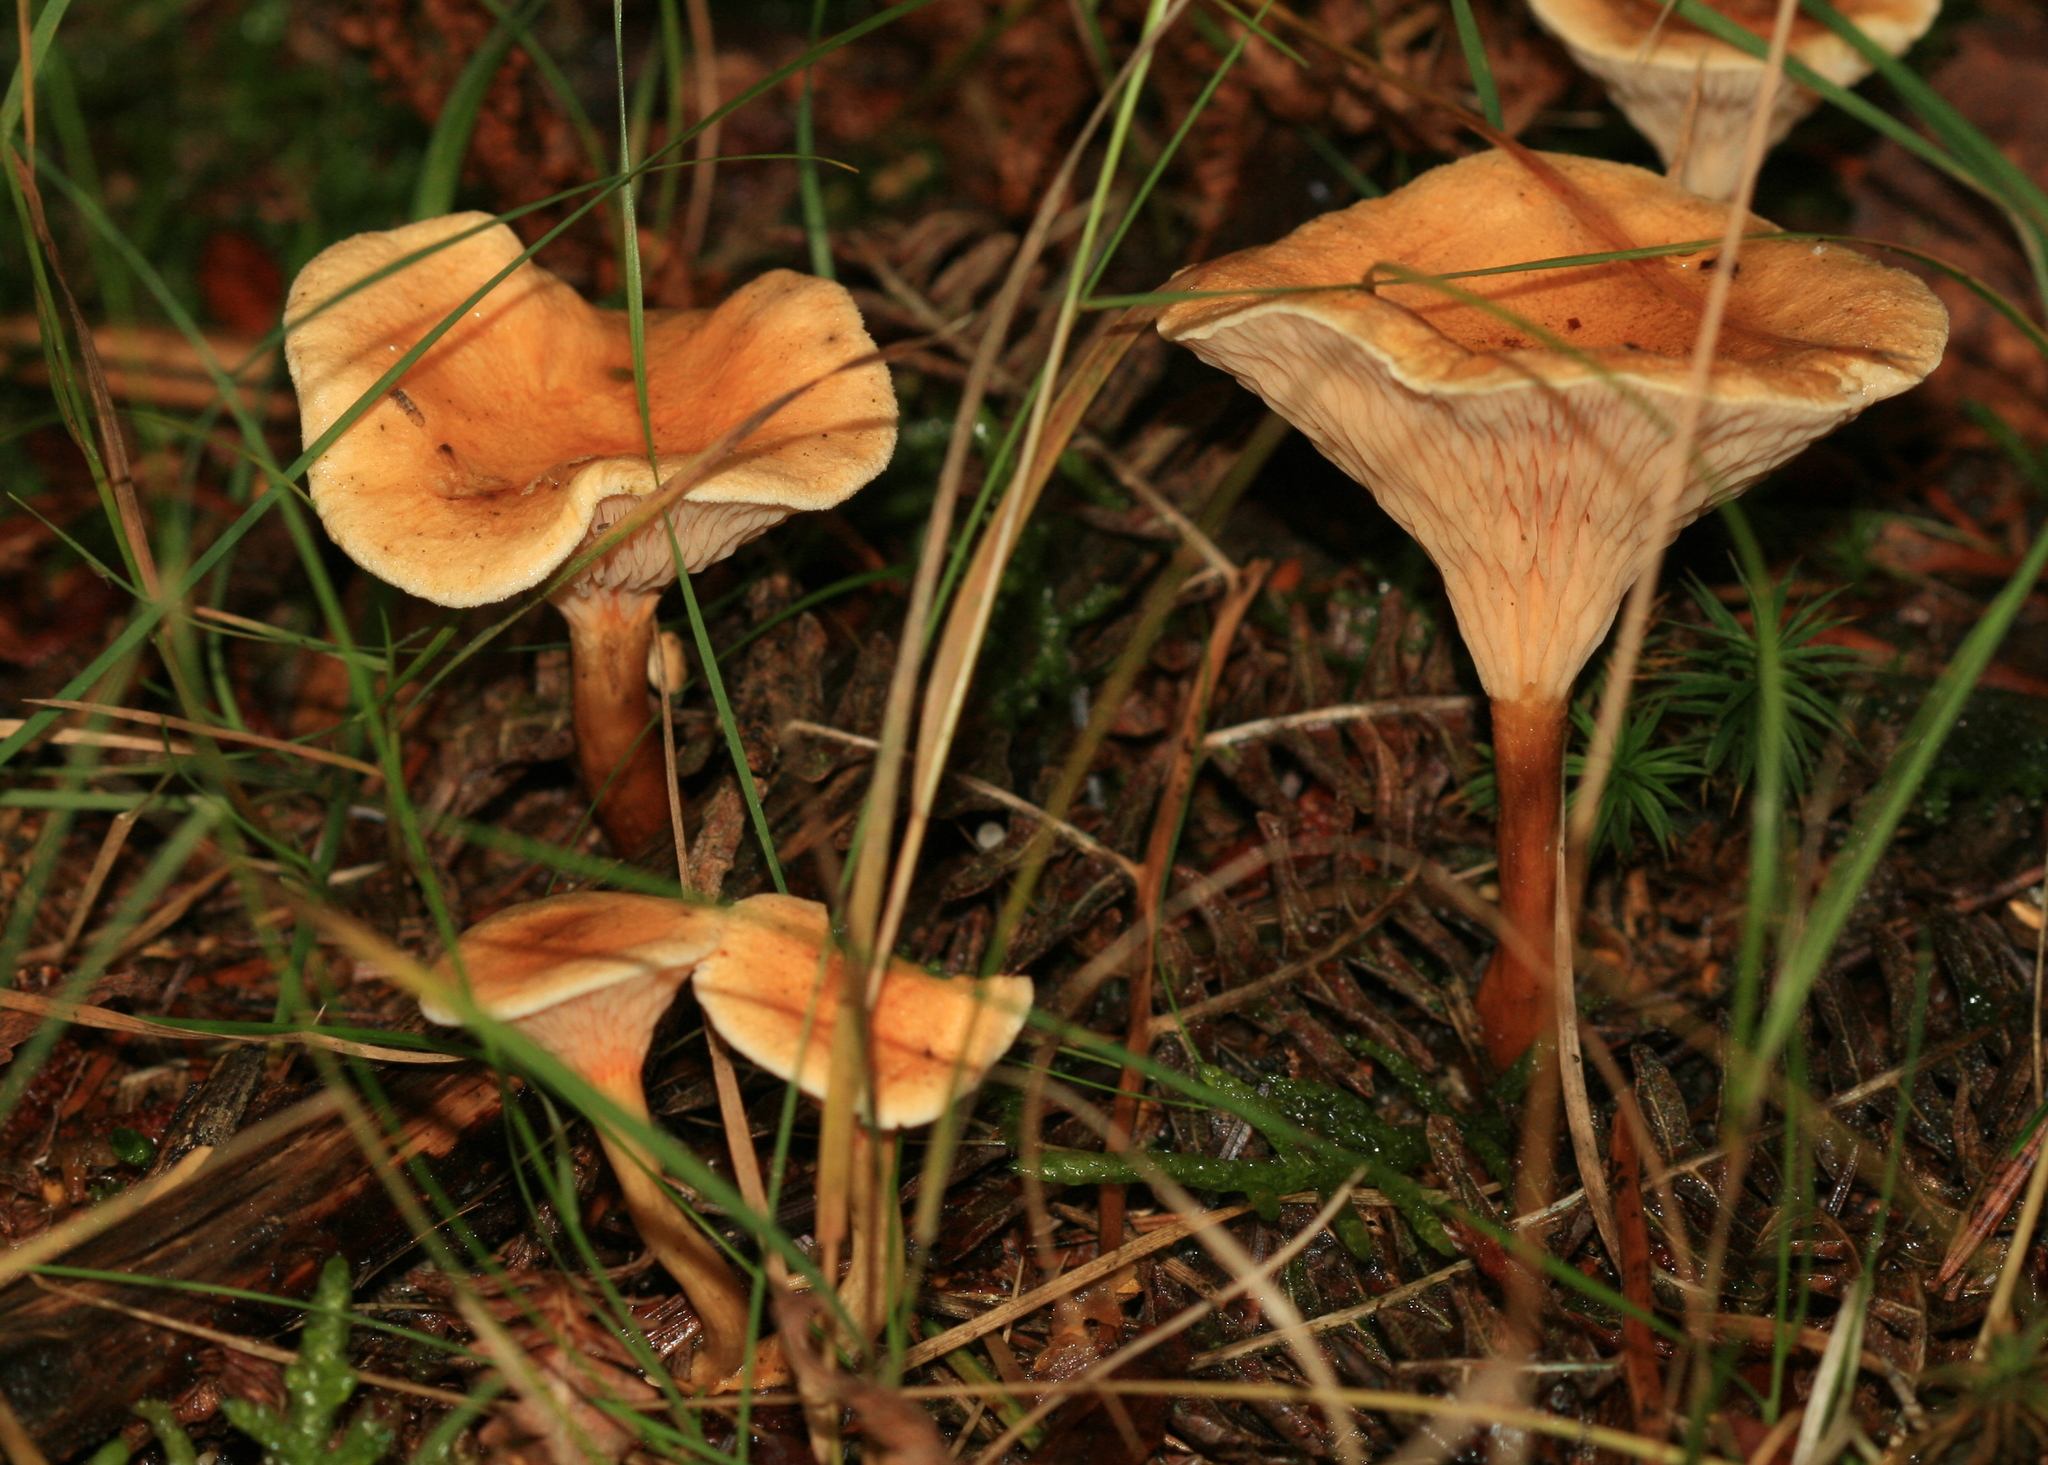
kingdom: Fungi
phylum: Basidiomycota
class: Agaricomycetes
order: Boletales
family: Hygrophoropsidaceae
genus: Hygrophoropsis
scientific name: Hygrophoropsis aurantiaca
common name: False chanterelle
